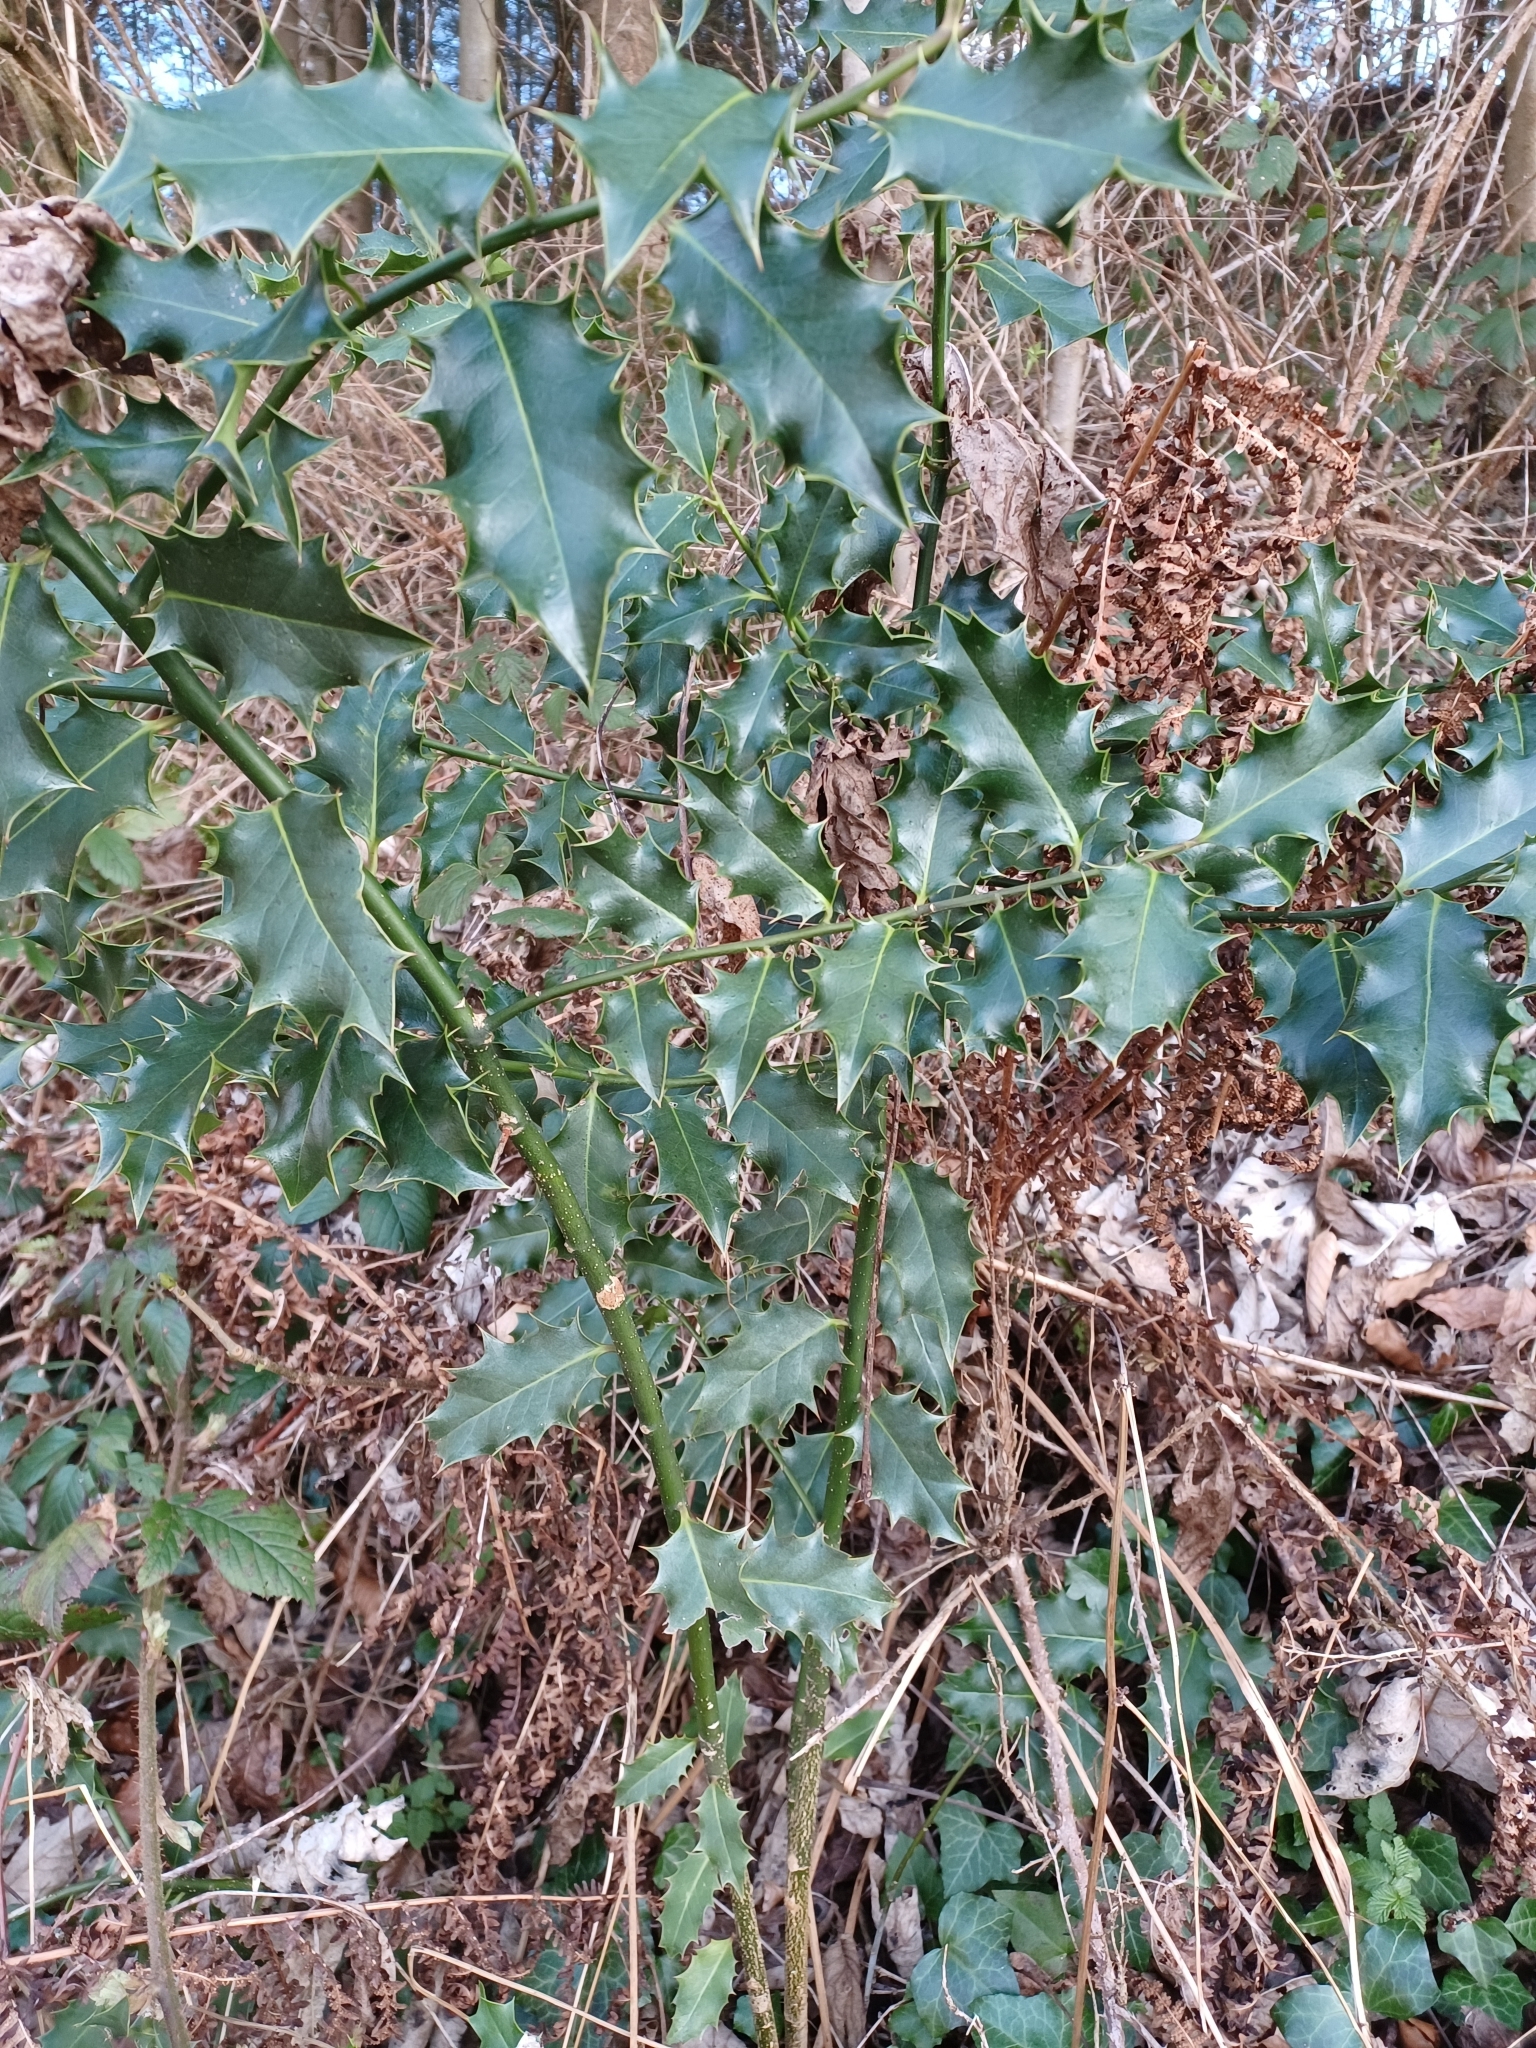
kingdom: Plantae
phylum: Tracheophyta
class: Magnoliopsida
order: Aquifoliales
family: Aquifoliaceae
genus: Ilex
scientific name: Ilex aquifolium
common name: English holly
